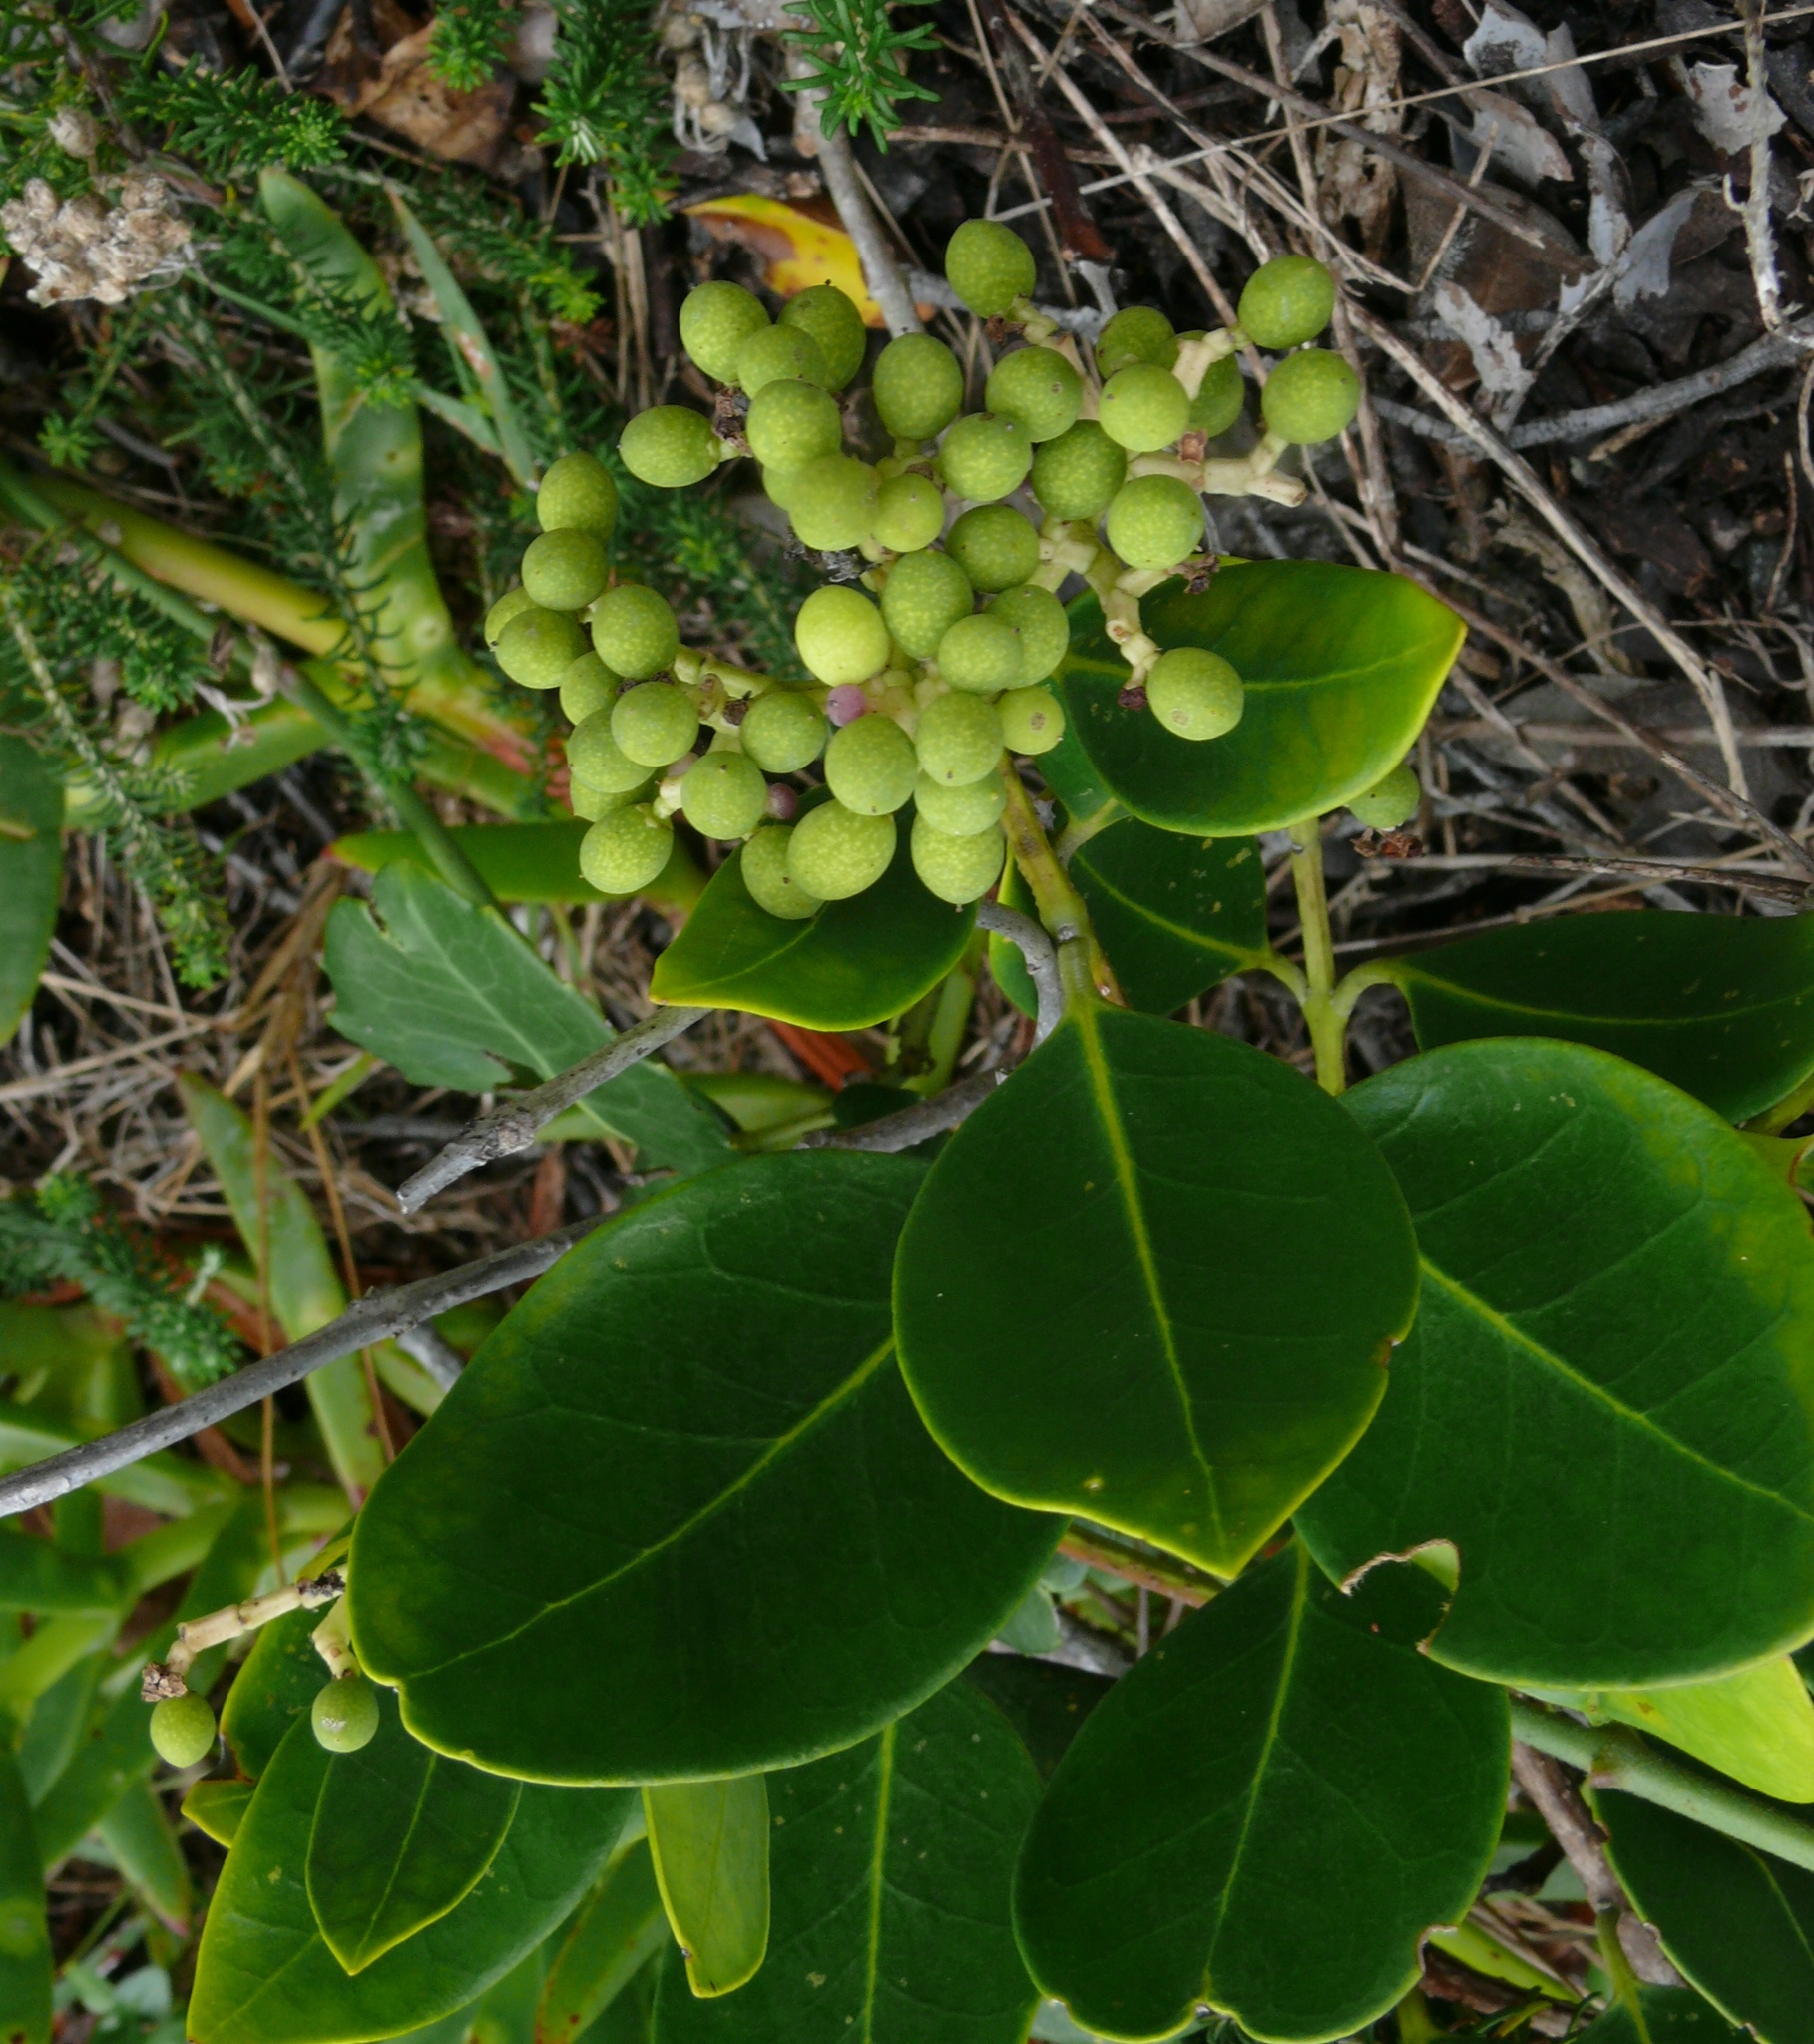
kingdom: Plantae
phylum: Tracheophyta
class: Magnoliopsida
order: Lamiales
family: Oleaceae
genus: Olea
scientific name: Olea capensis
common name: Black ironwood
